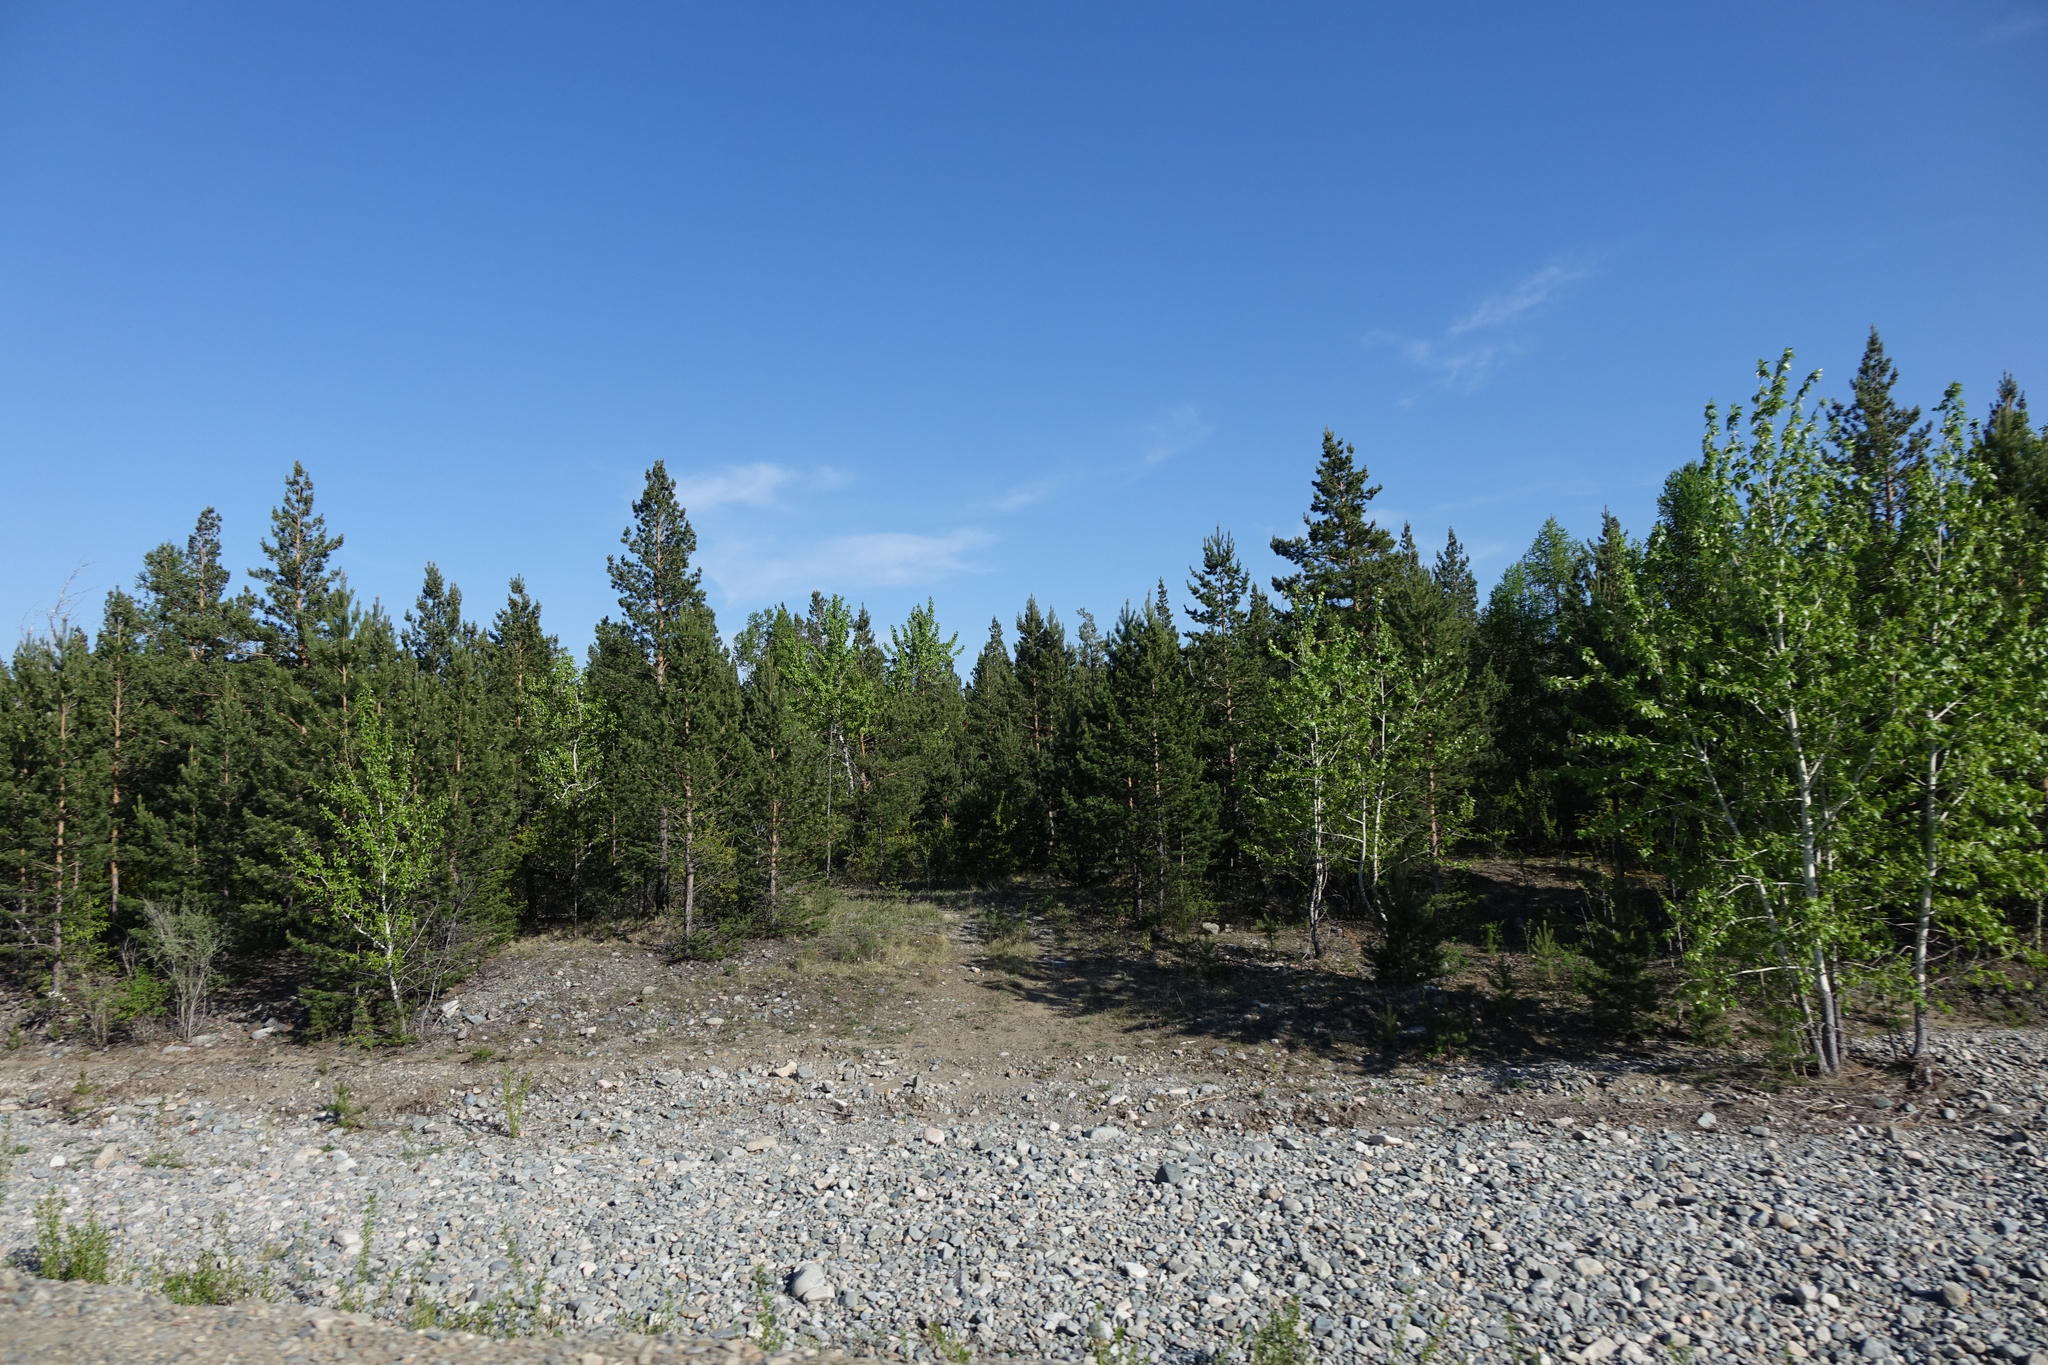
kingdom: Plantae
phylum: Tracheophyta
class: Pinopsida
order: Pinales
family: Pinaceae
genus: Pinus
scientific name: Pinus sylvestris
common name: Scots pine
